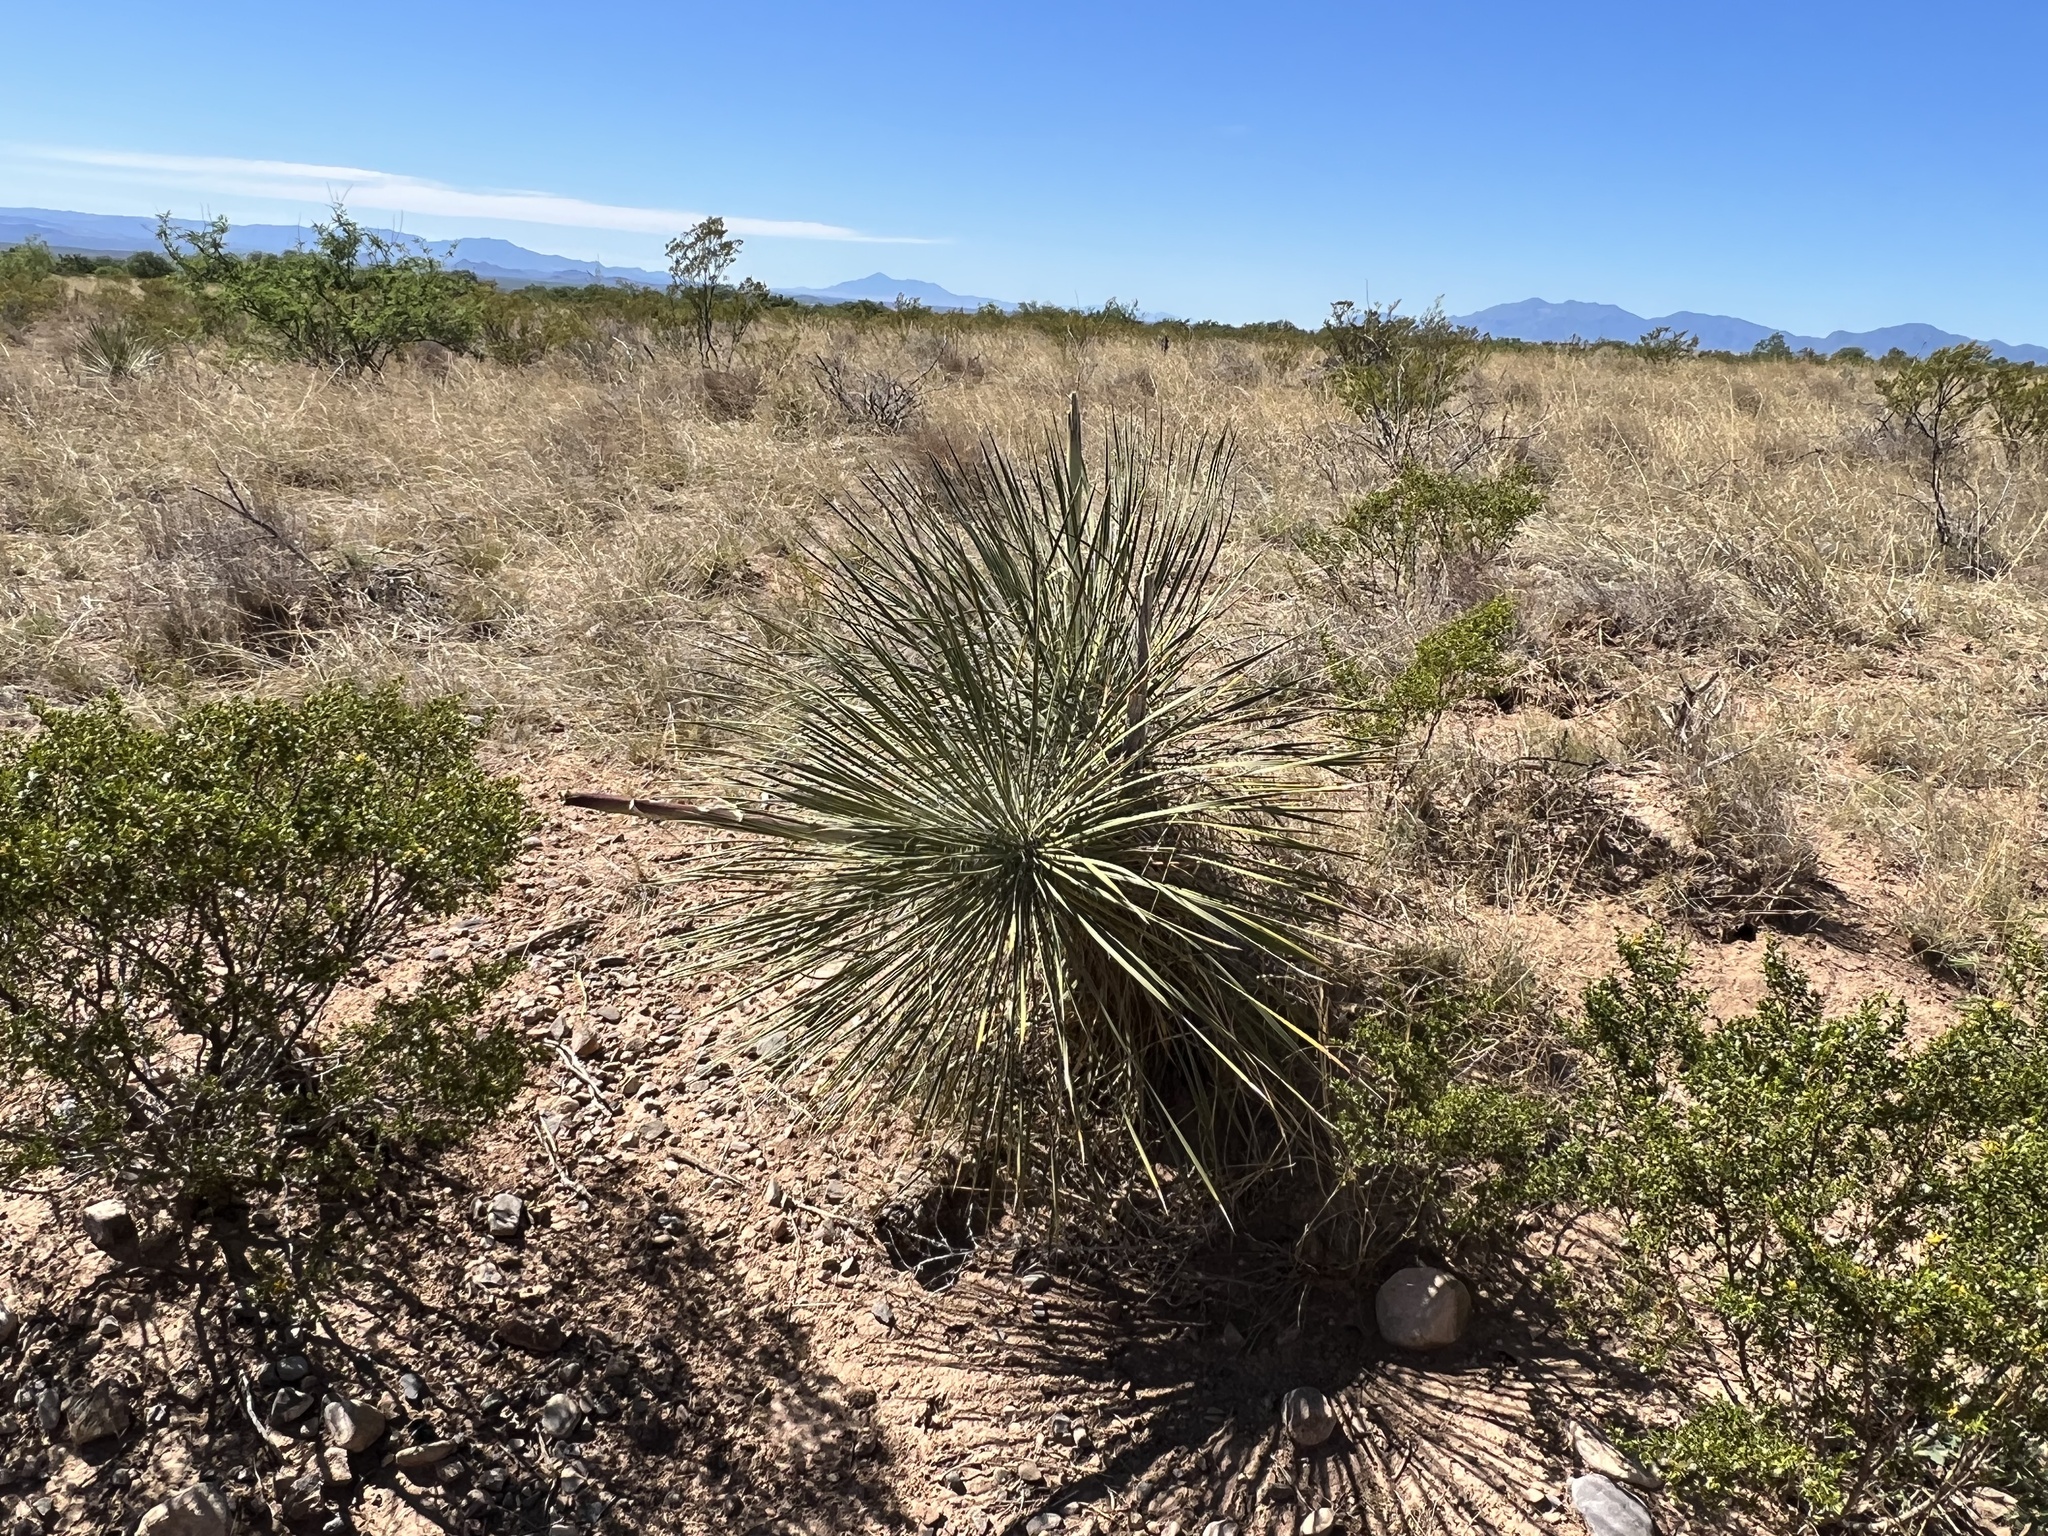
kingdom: Plantae
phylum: Tracheophyta
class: Liliopsida
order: Asparagales
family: Asparagaceae
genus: Yucca
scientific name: Yucca elata
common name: Palmella
